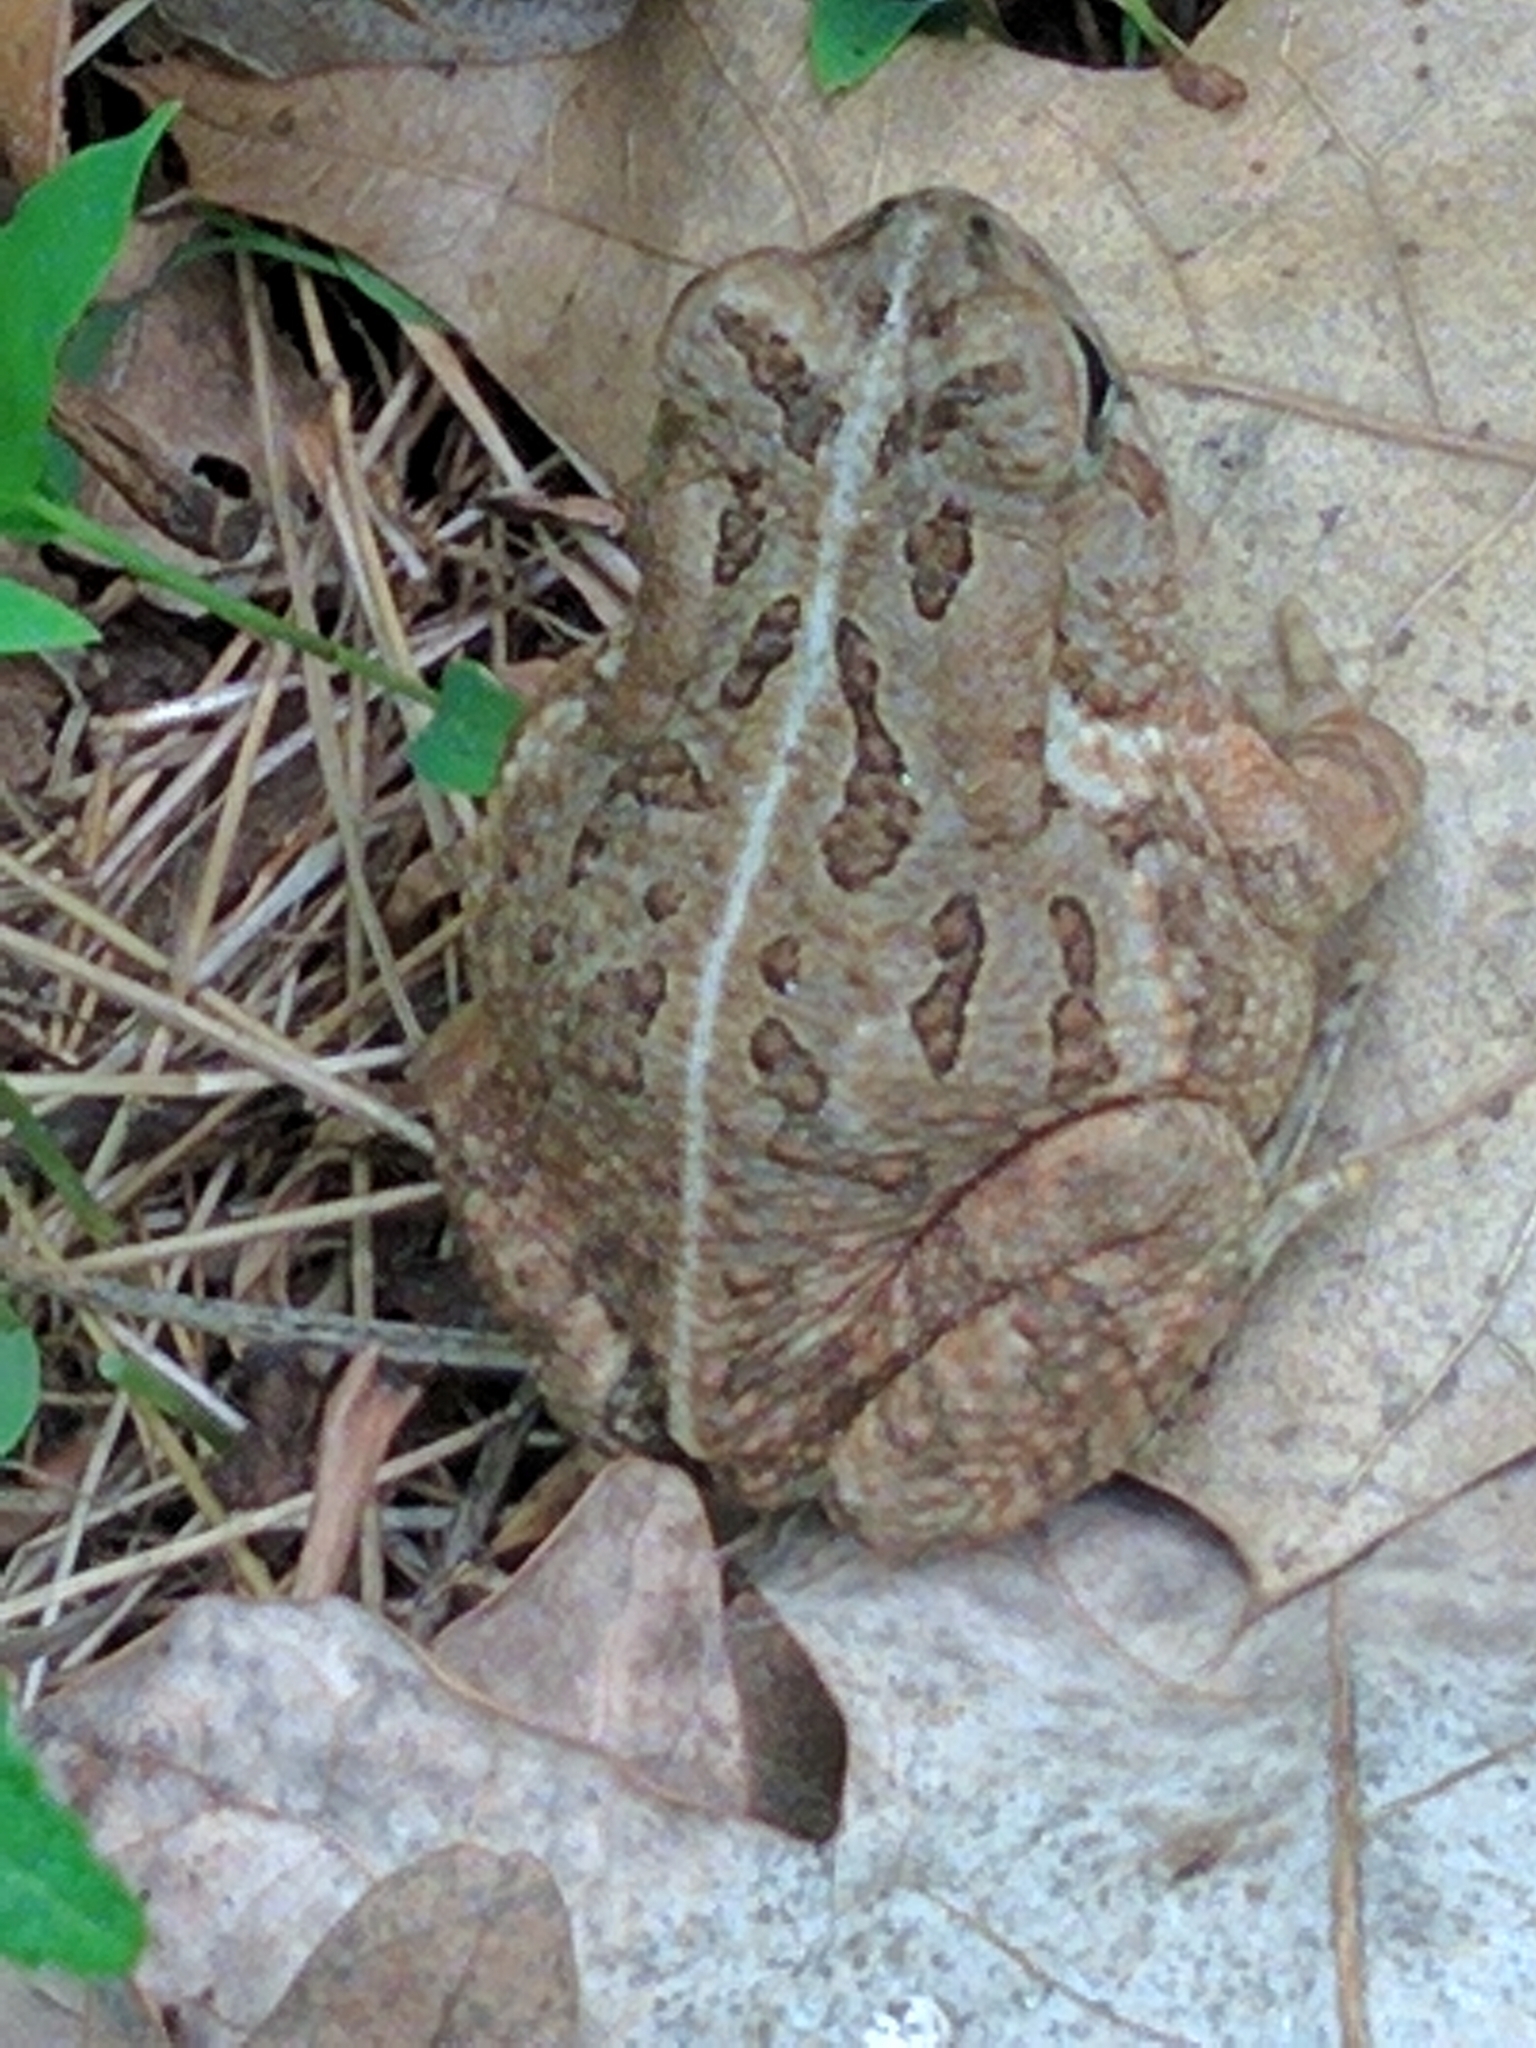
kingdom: Animalia
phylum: Chordata
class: Amphibia
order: Anura
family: Bufonidae
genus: Anaxyrus
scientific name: Anaxyrus fowleri
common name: Fowler's toad
